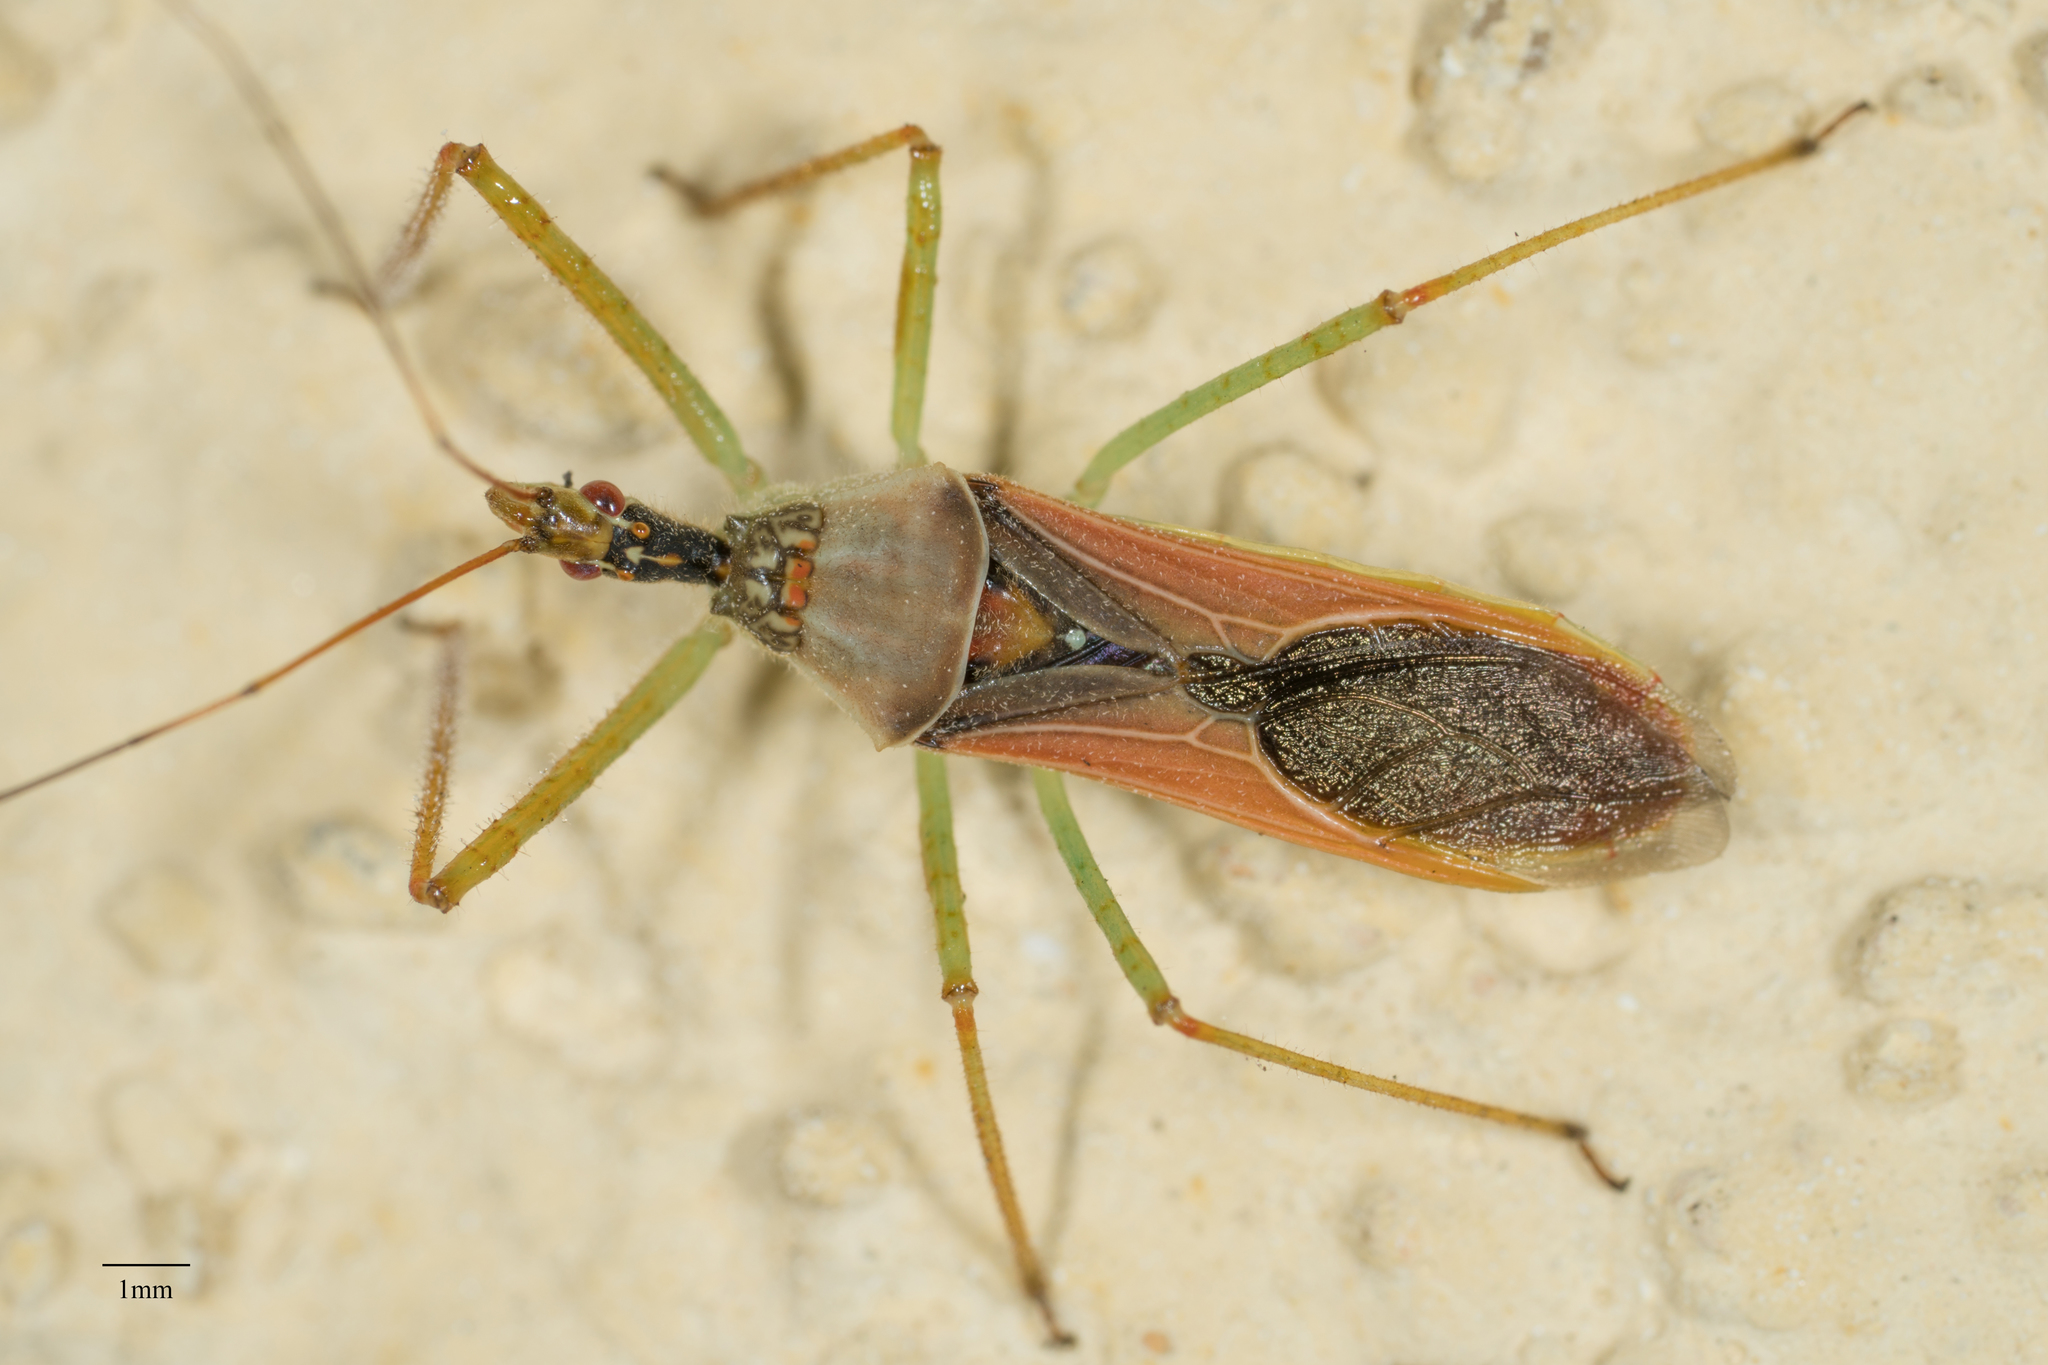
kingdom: Animalia
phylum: Arthropoda
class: Insecta
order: Hemiptera
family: Reduviidae
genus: Zelus
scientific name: Zelus renardii
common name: Assassin bug
